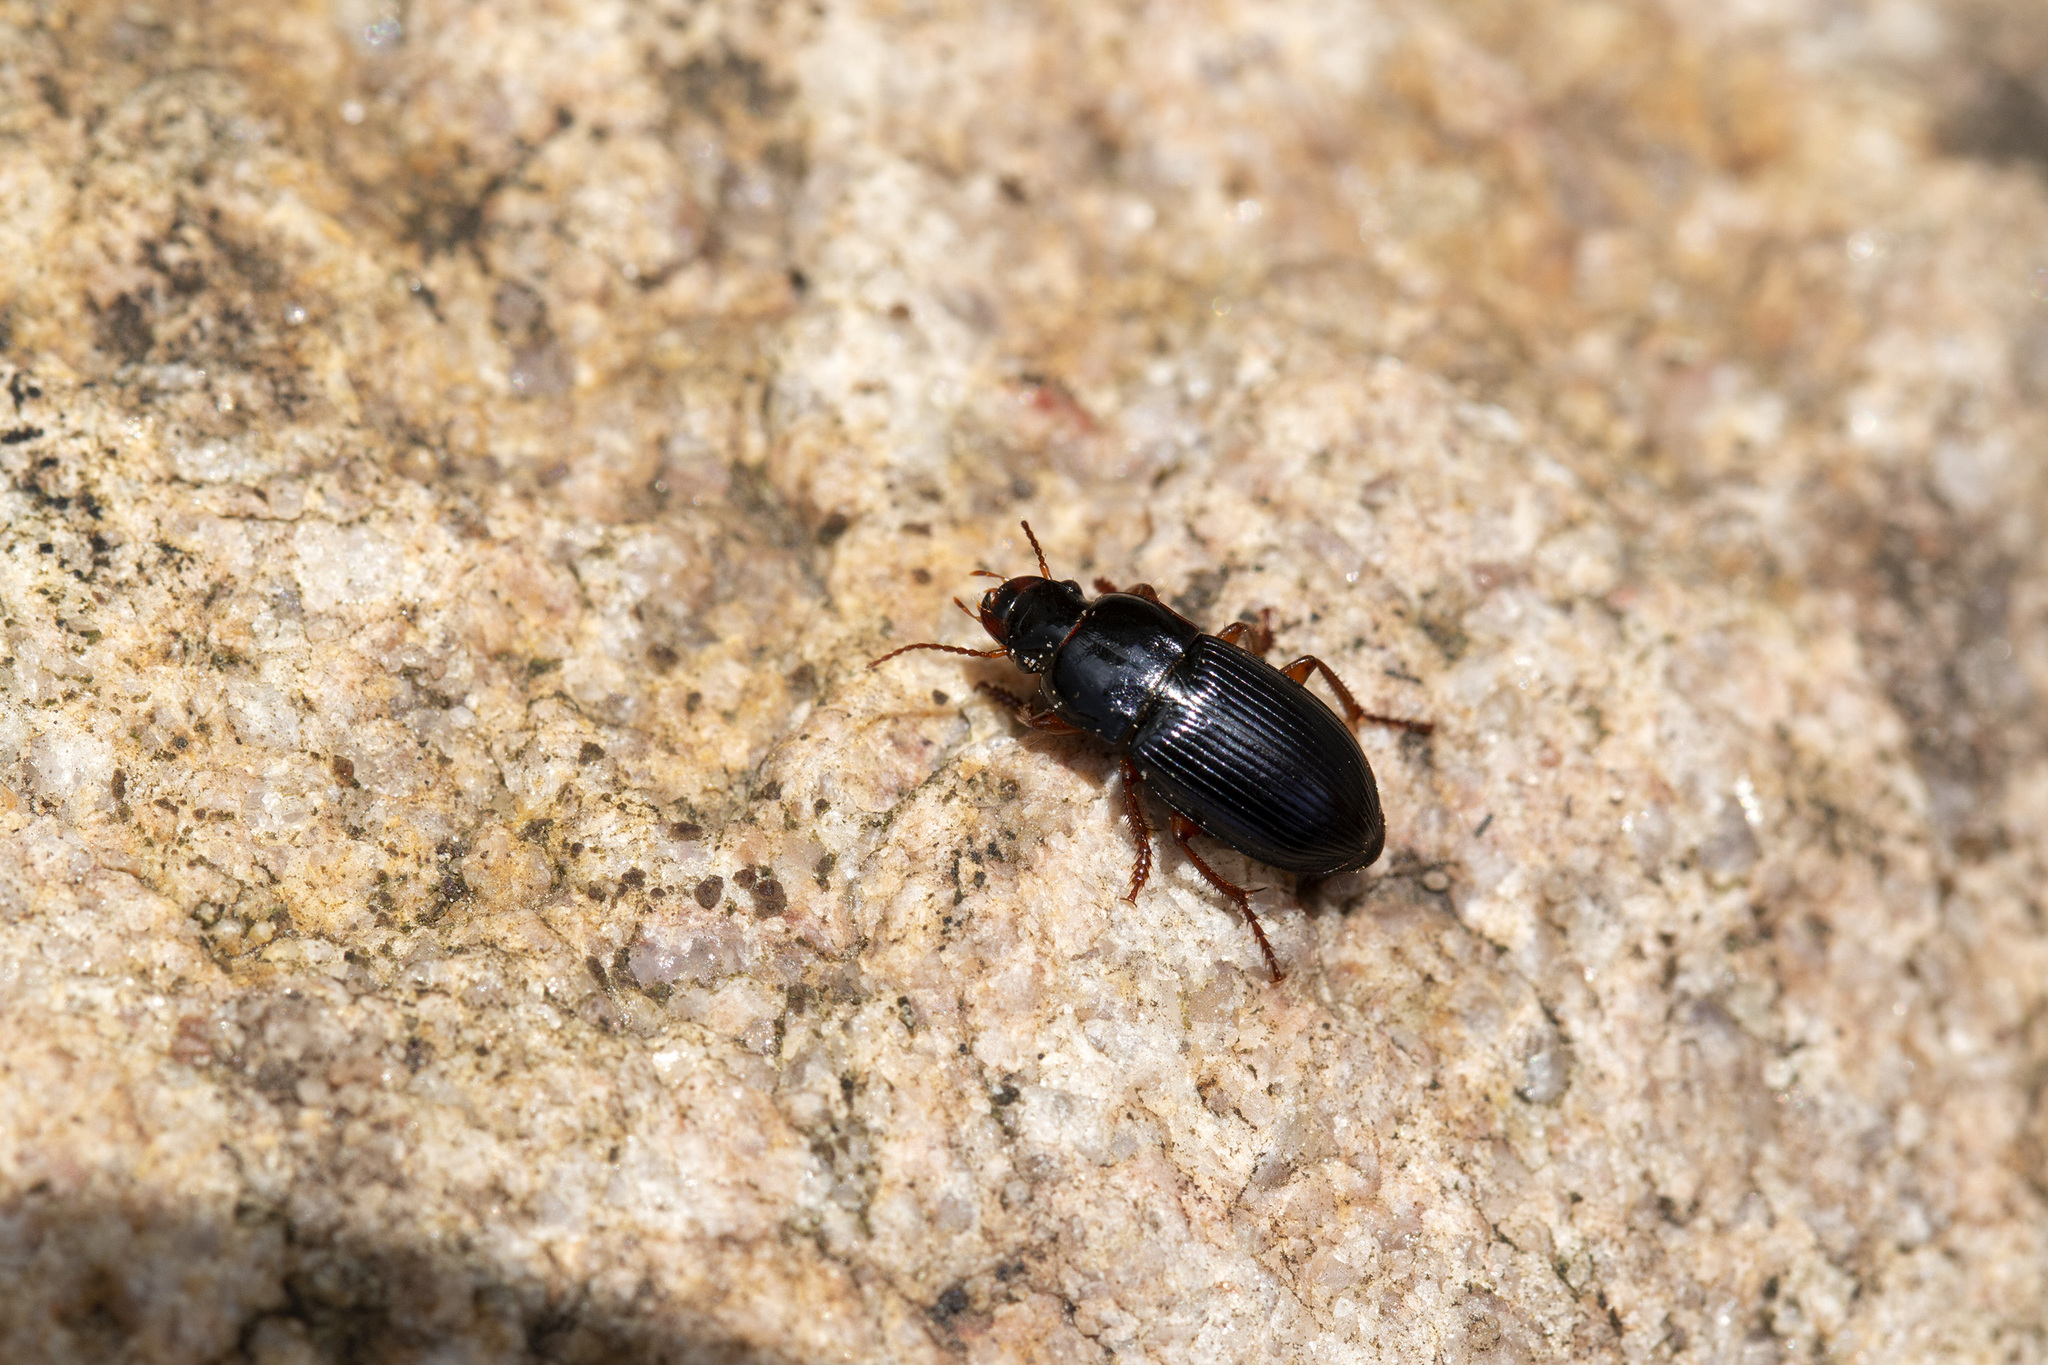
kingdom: Animalia
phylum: Arthropoda
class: Insecta
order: Coleoptera
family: Carabidae
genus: Harpalus
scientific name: Harpalus rubripes
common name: Red-legged harp ground beetle
